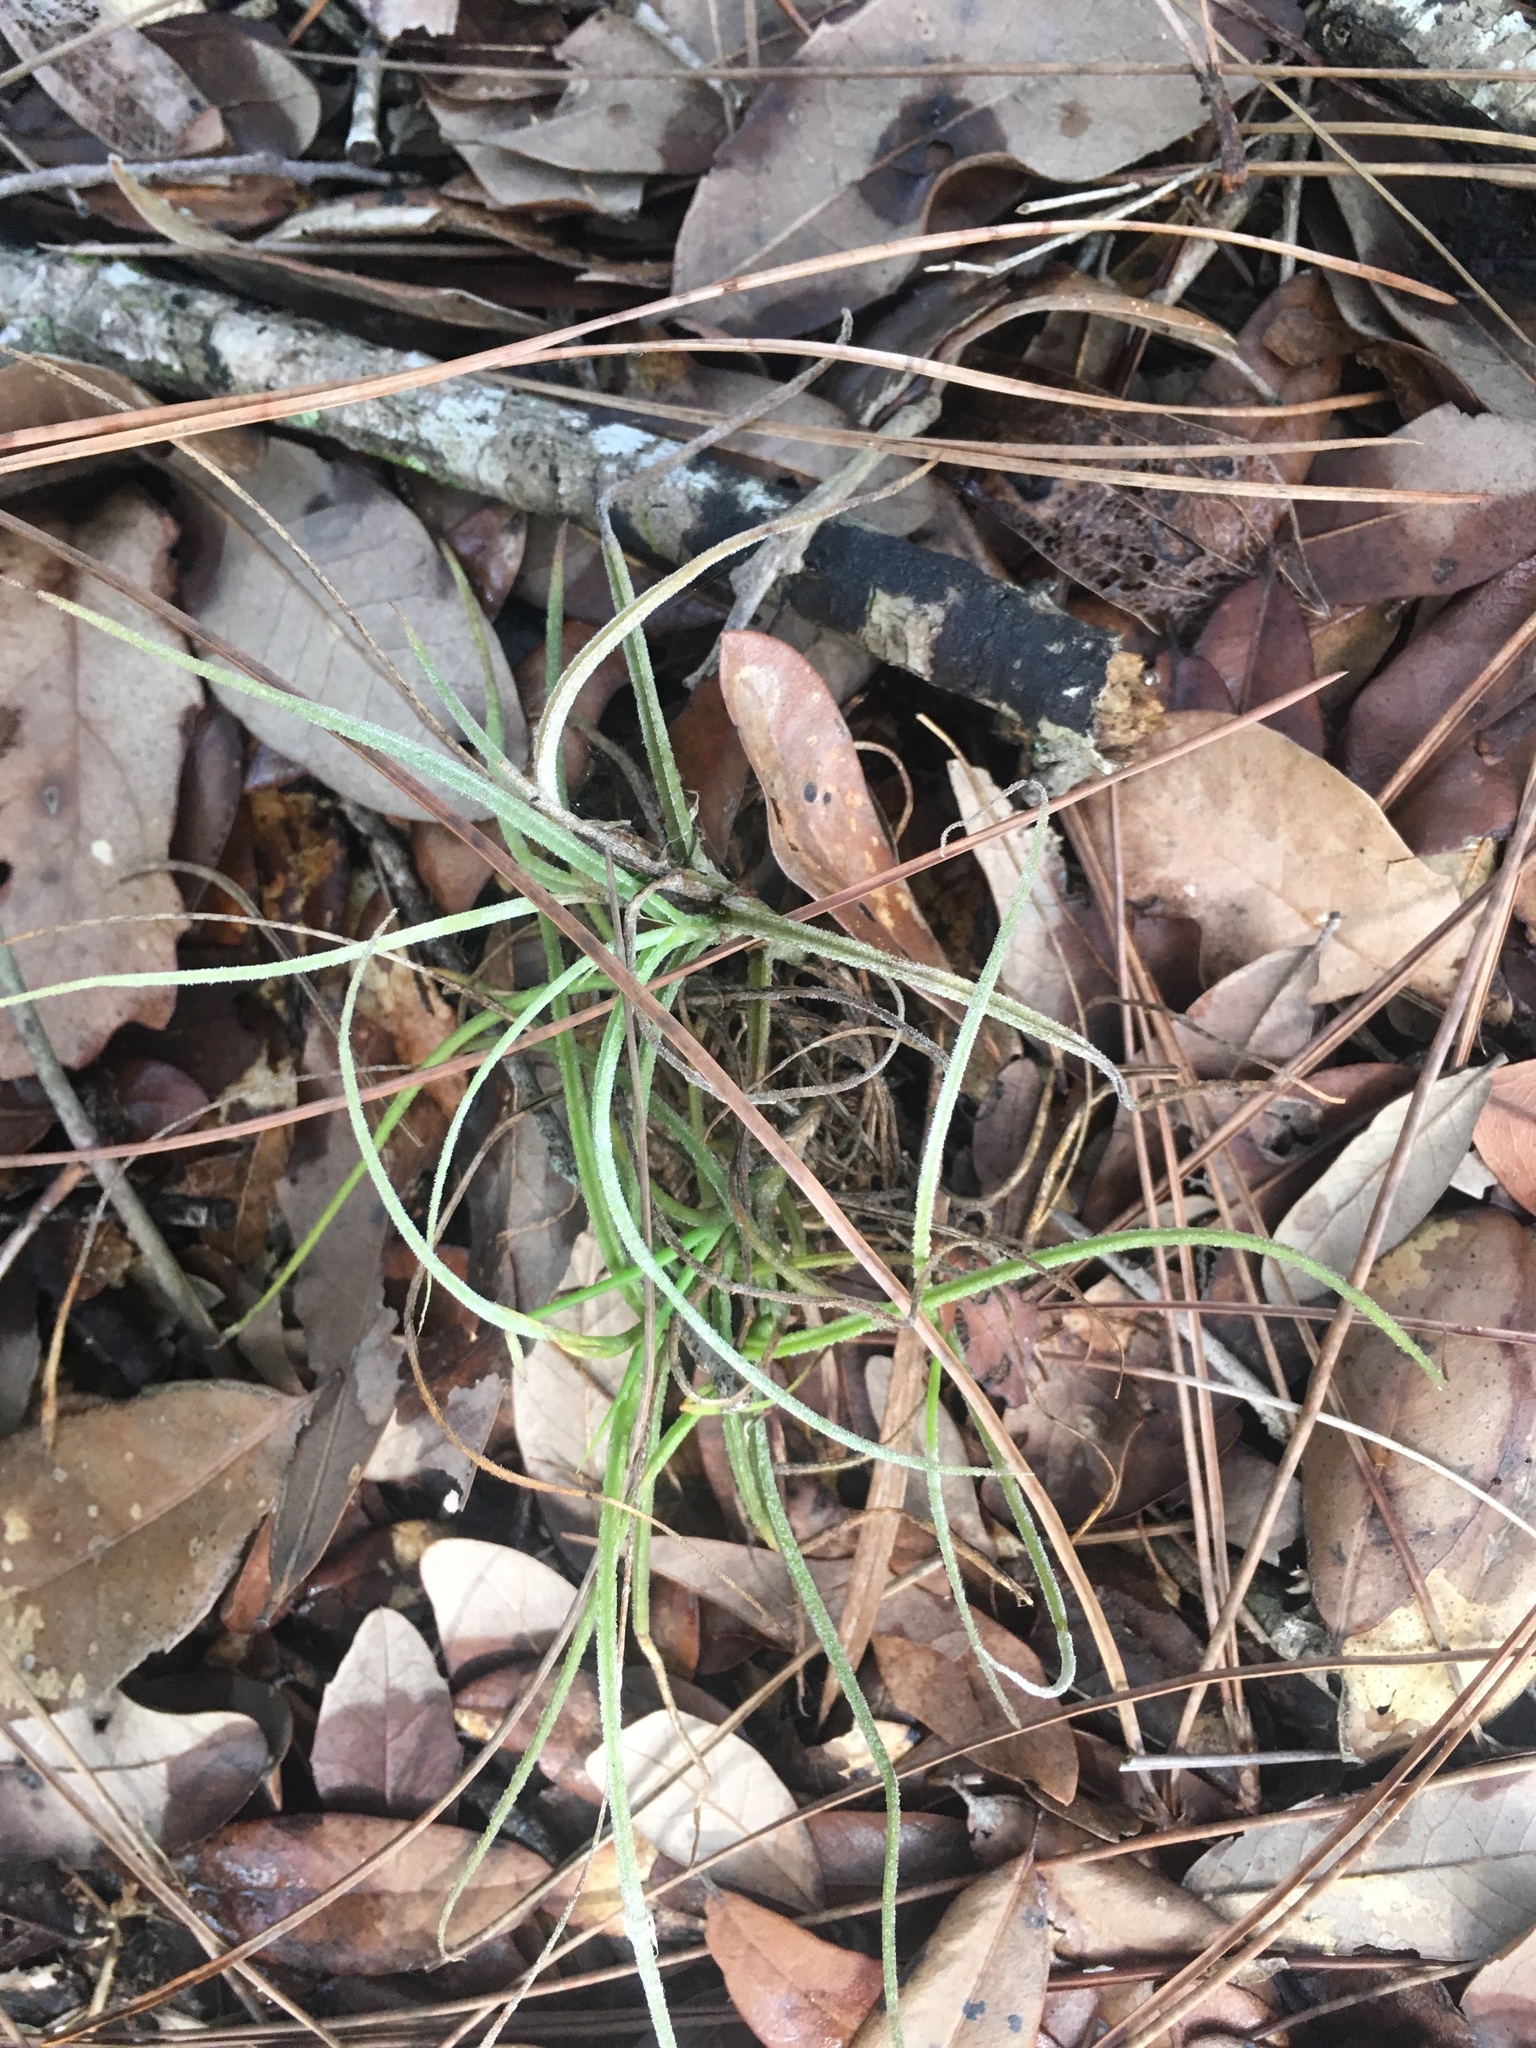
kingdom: Plantae
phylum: Tracheophyta
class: Liliopsida
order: Poales
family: Bromeliaceae
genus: Tillandsia
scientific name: Tillandsia recurvata
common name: Small ballmoss
